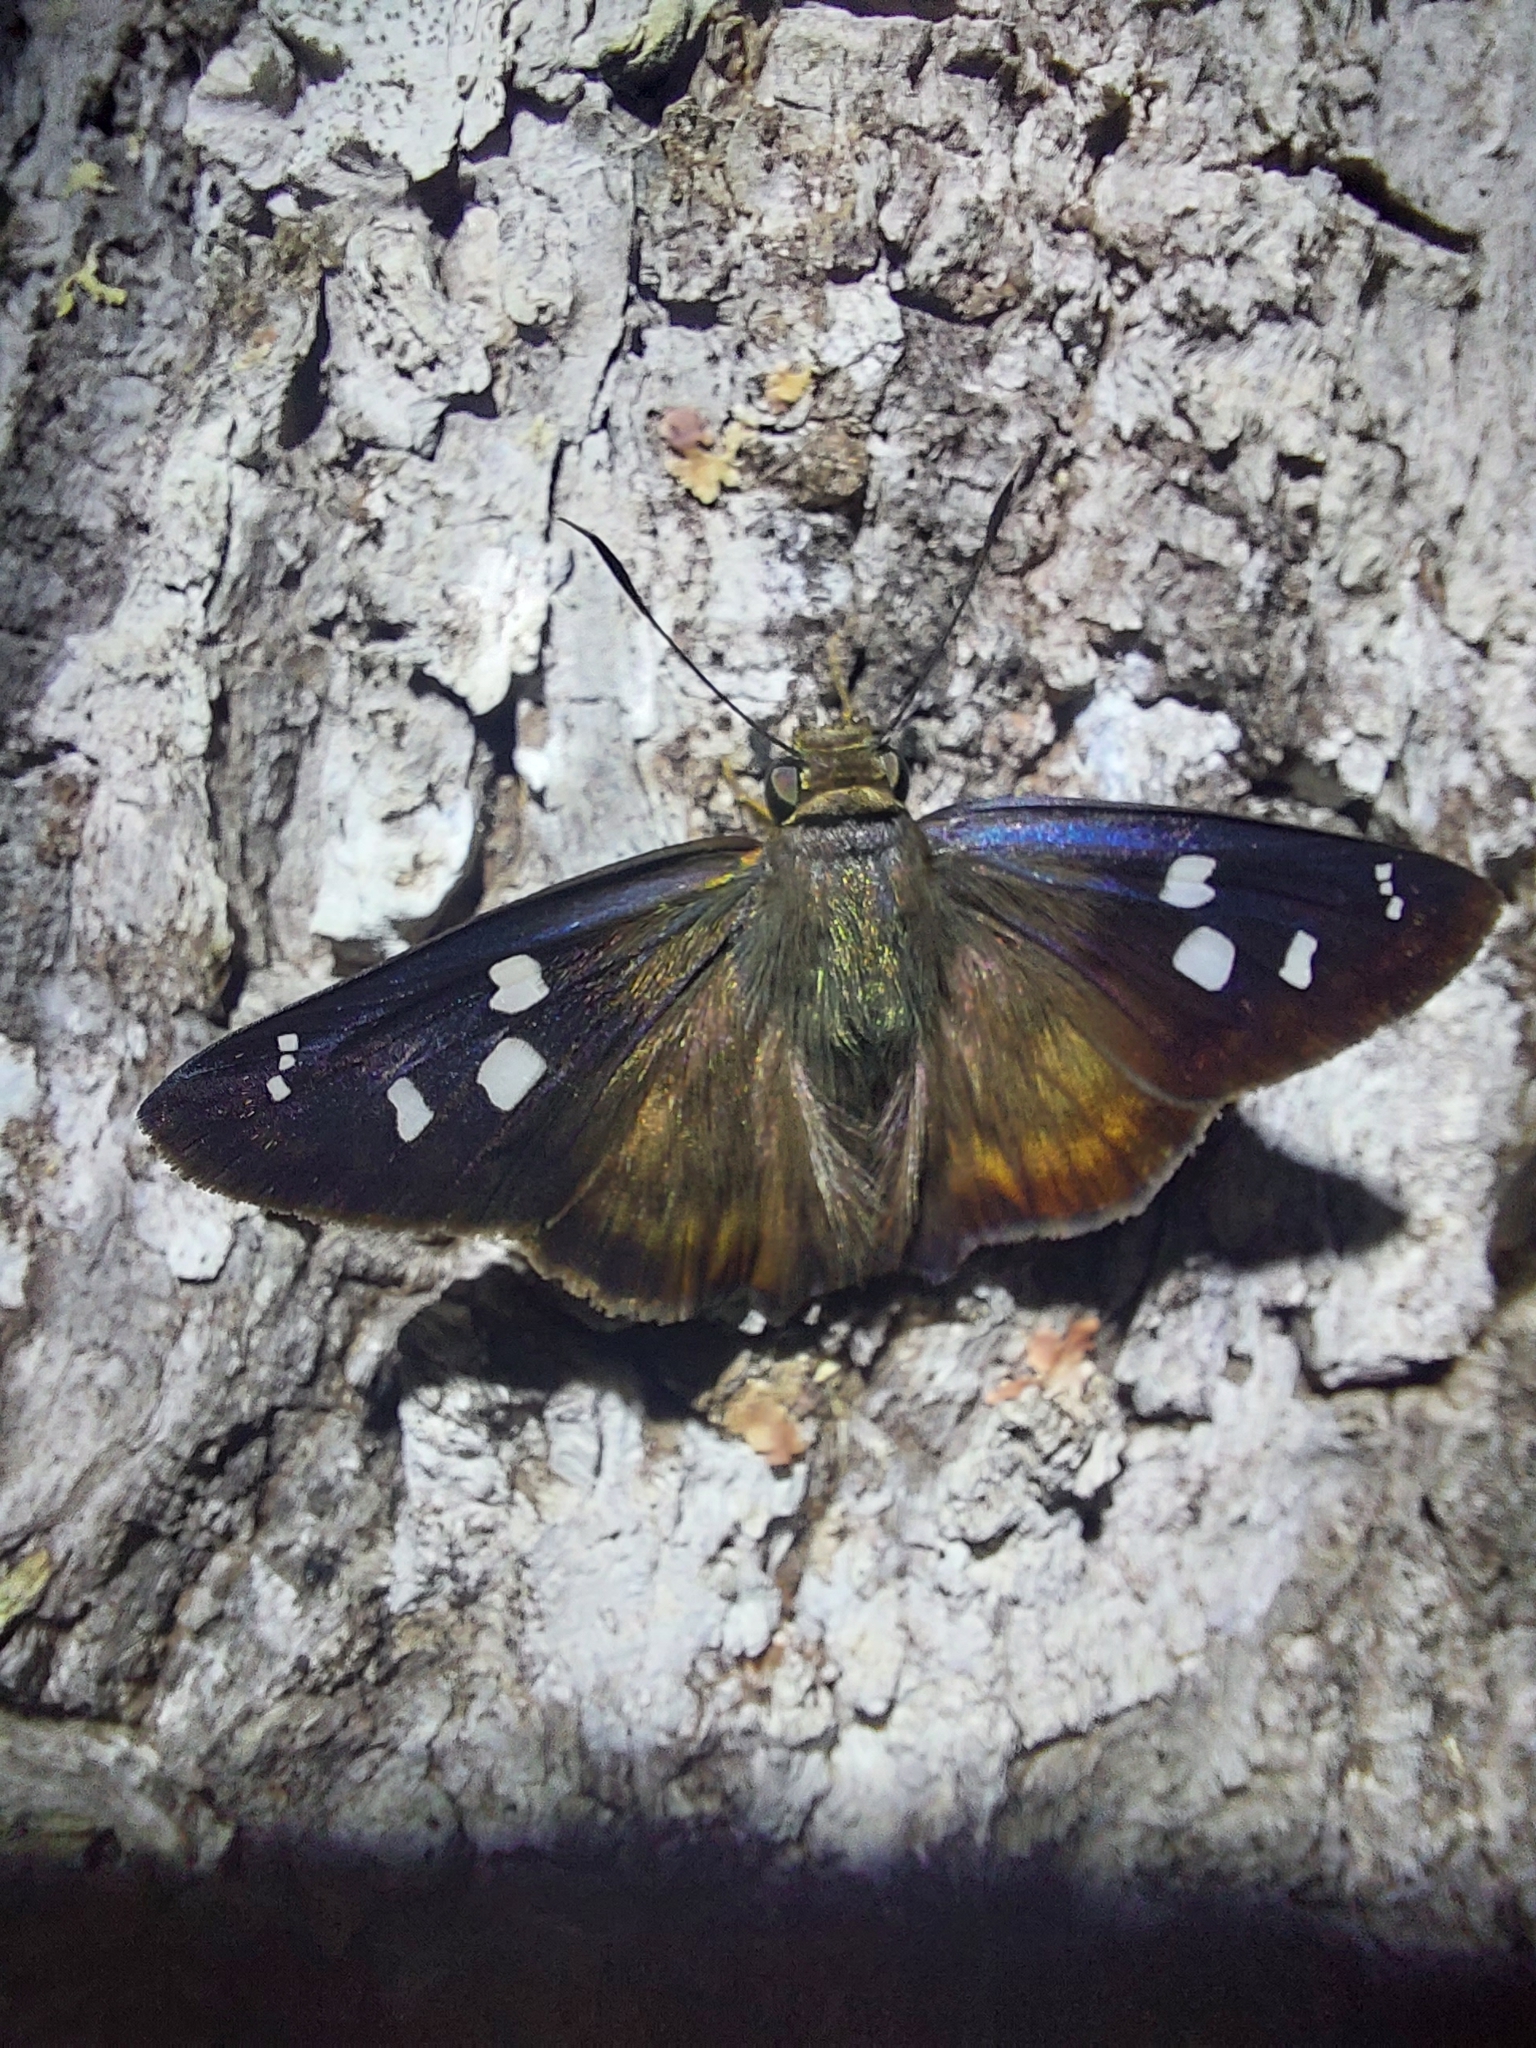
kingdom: Animalia
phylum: Arthropoda
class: Insecta
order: Lepidoptera
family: Hesperiidae
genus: Polygonus
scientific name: Polygonus
